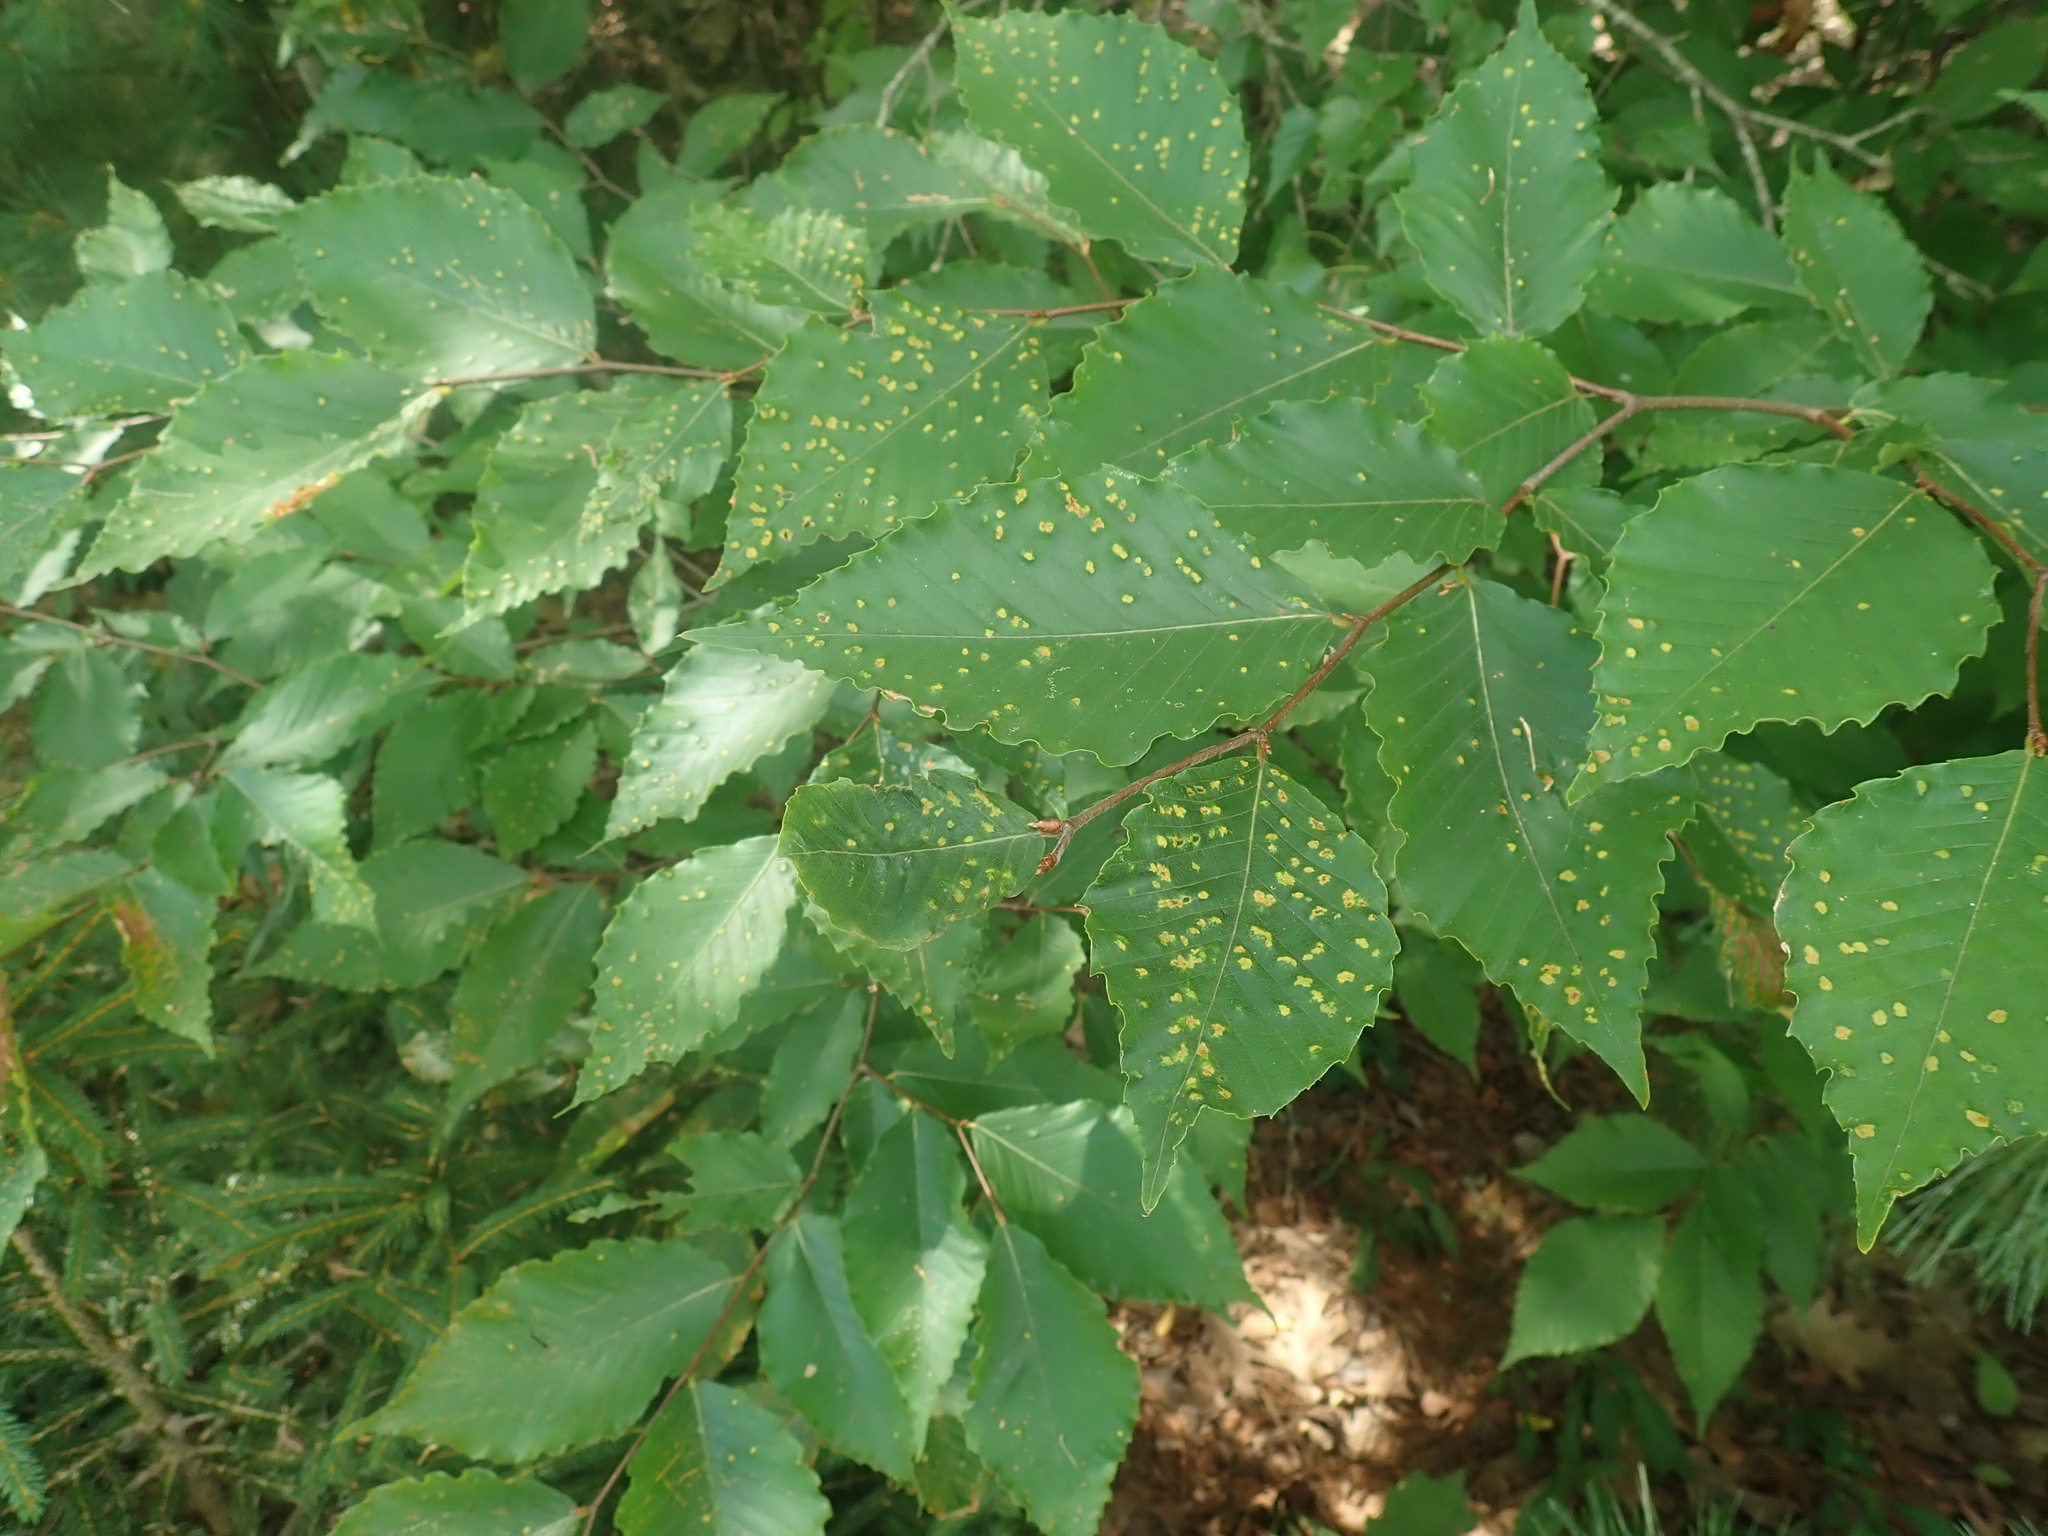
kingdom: Plantae
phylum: Tracheophyta
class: Magnoliopsida
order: Fagales
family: Fagaceae
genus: Fagus
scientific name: Fagus grandifolia
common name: American beech
